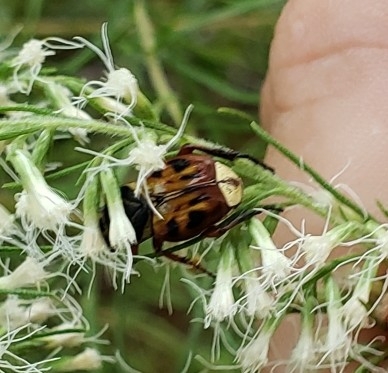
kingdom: Animalia
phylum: Arthropoda
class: Insecta
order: Coleoptera
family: Scarabaeidae
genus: Trigonopeltastes
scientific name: Trigonopeltastes delta
